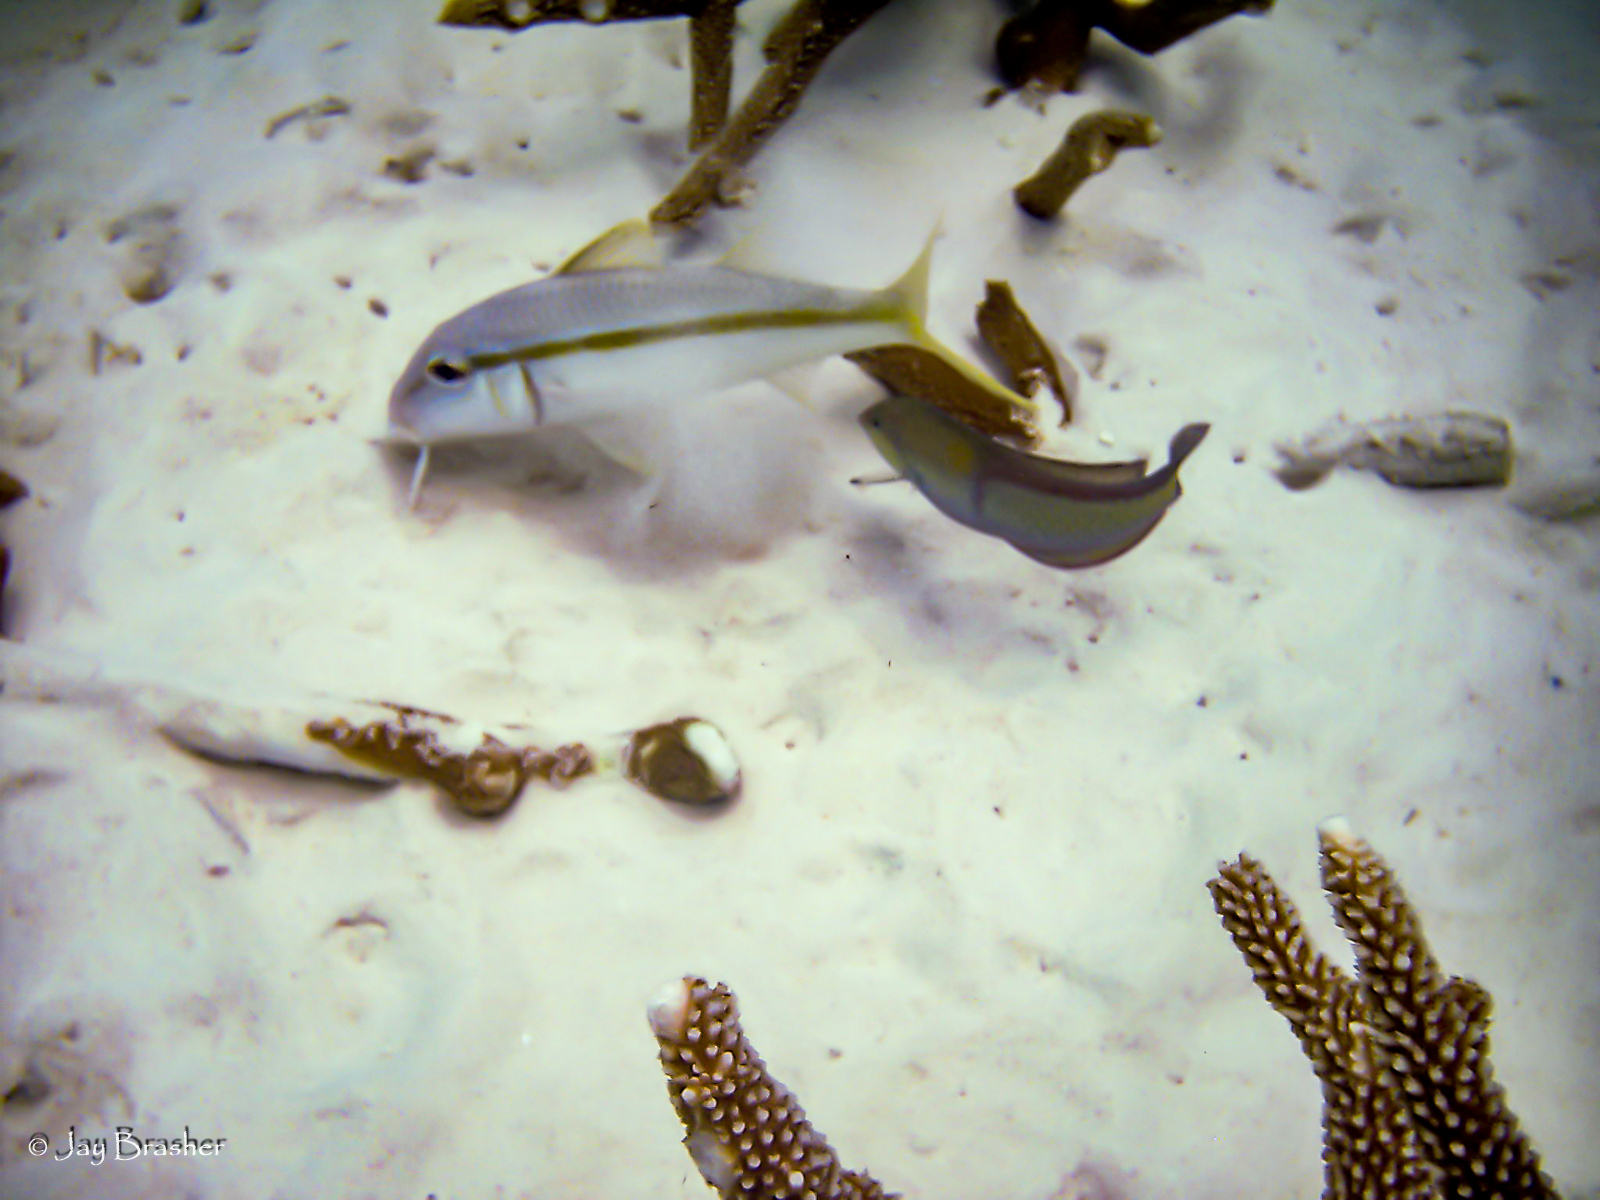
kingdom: Animalia
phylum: Chordata
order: Perciformes
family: Mullidae
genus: Mulloidichthys
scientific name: Mulloidichthys martinicus
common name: Yellow goatfish
